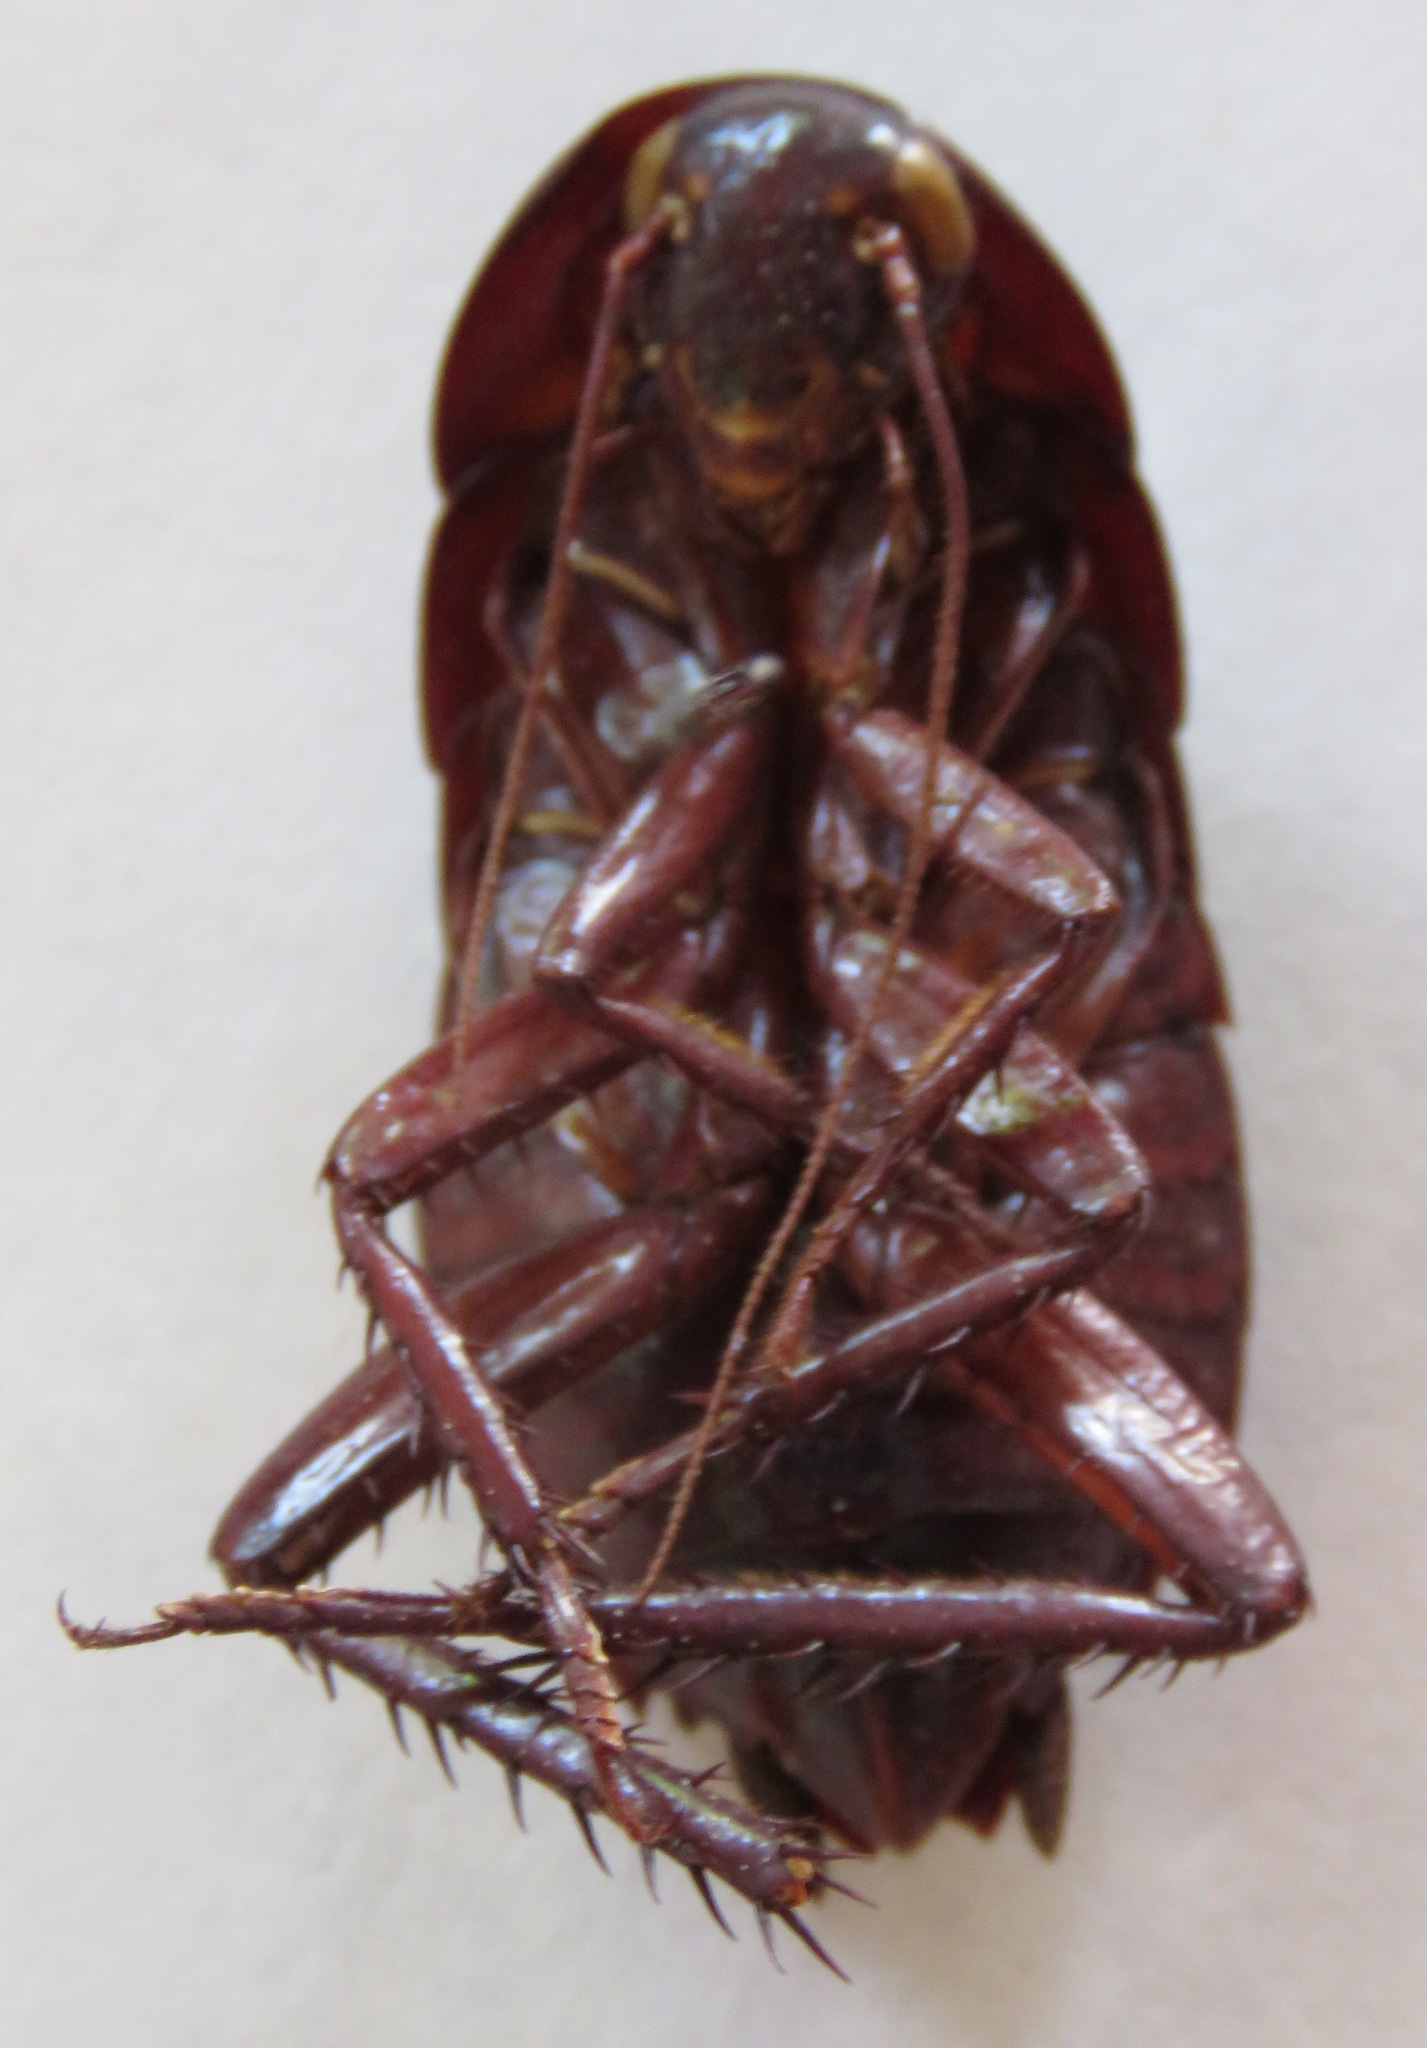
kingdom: Animalia
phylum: Arthropoda
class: Insecta
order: Blattodea
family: Blattidae
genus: Eurycotis
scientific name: Eurycotis biolleyi
